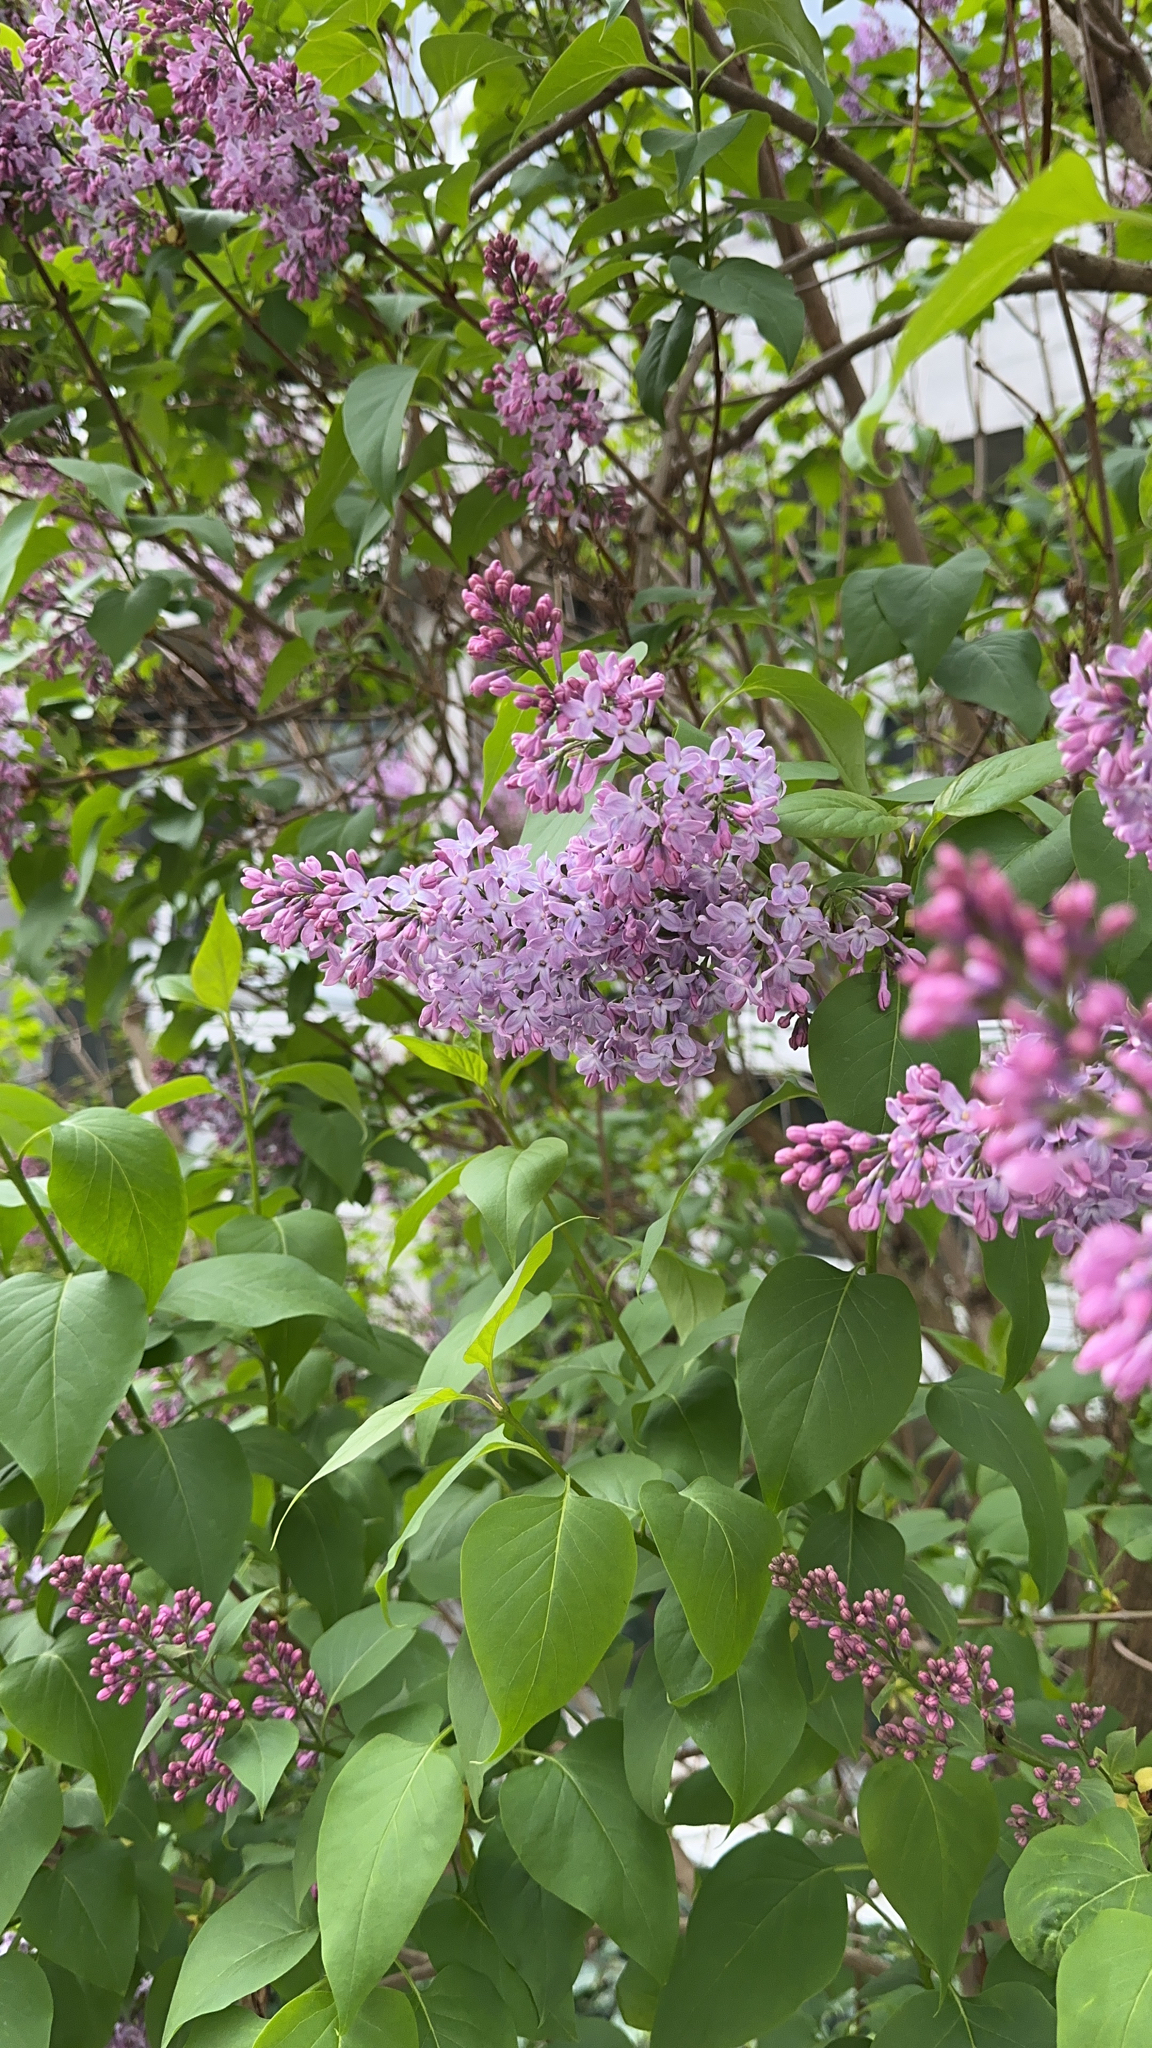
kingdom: Plantae
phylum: Tracheophyta
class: Magnoliopsida
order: Lamiales
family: Oleaceae
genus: Syringa
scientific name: Syringa vulgaris
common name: Common lilac
